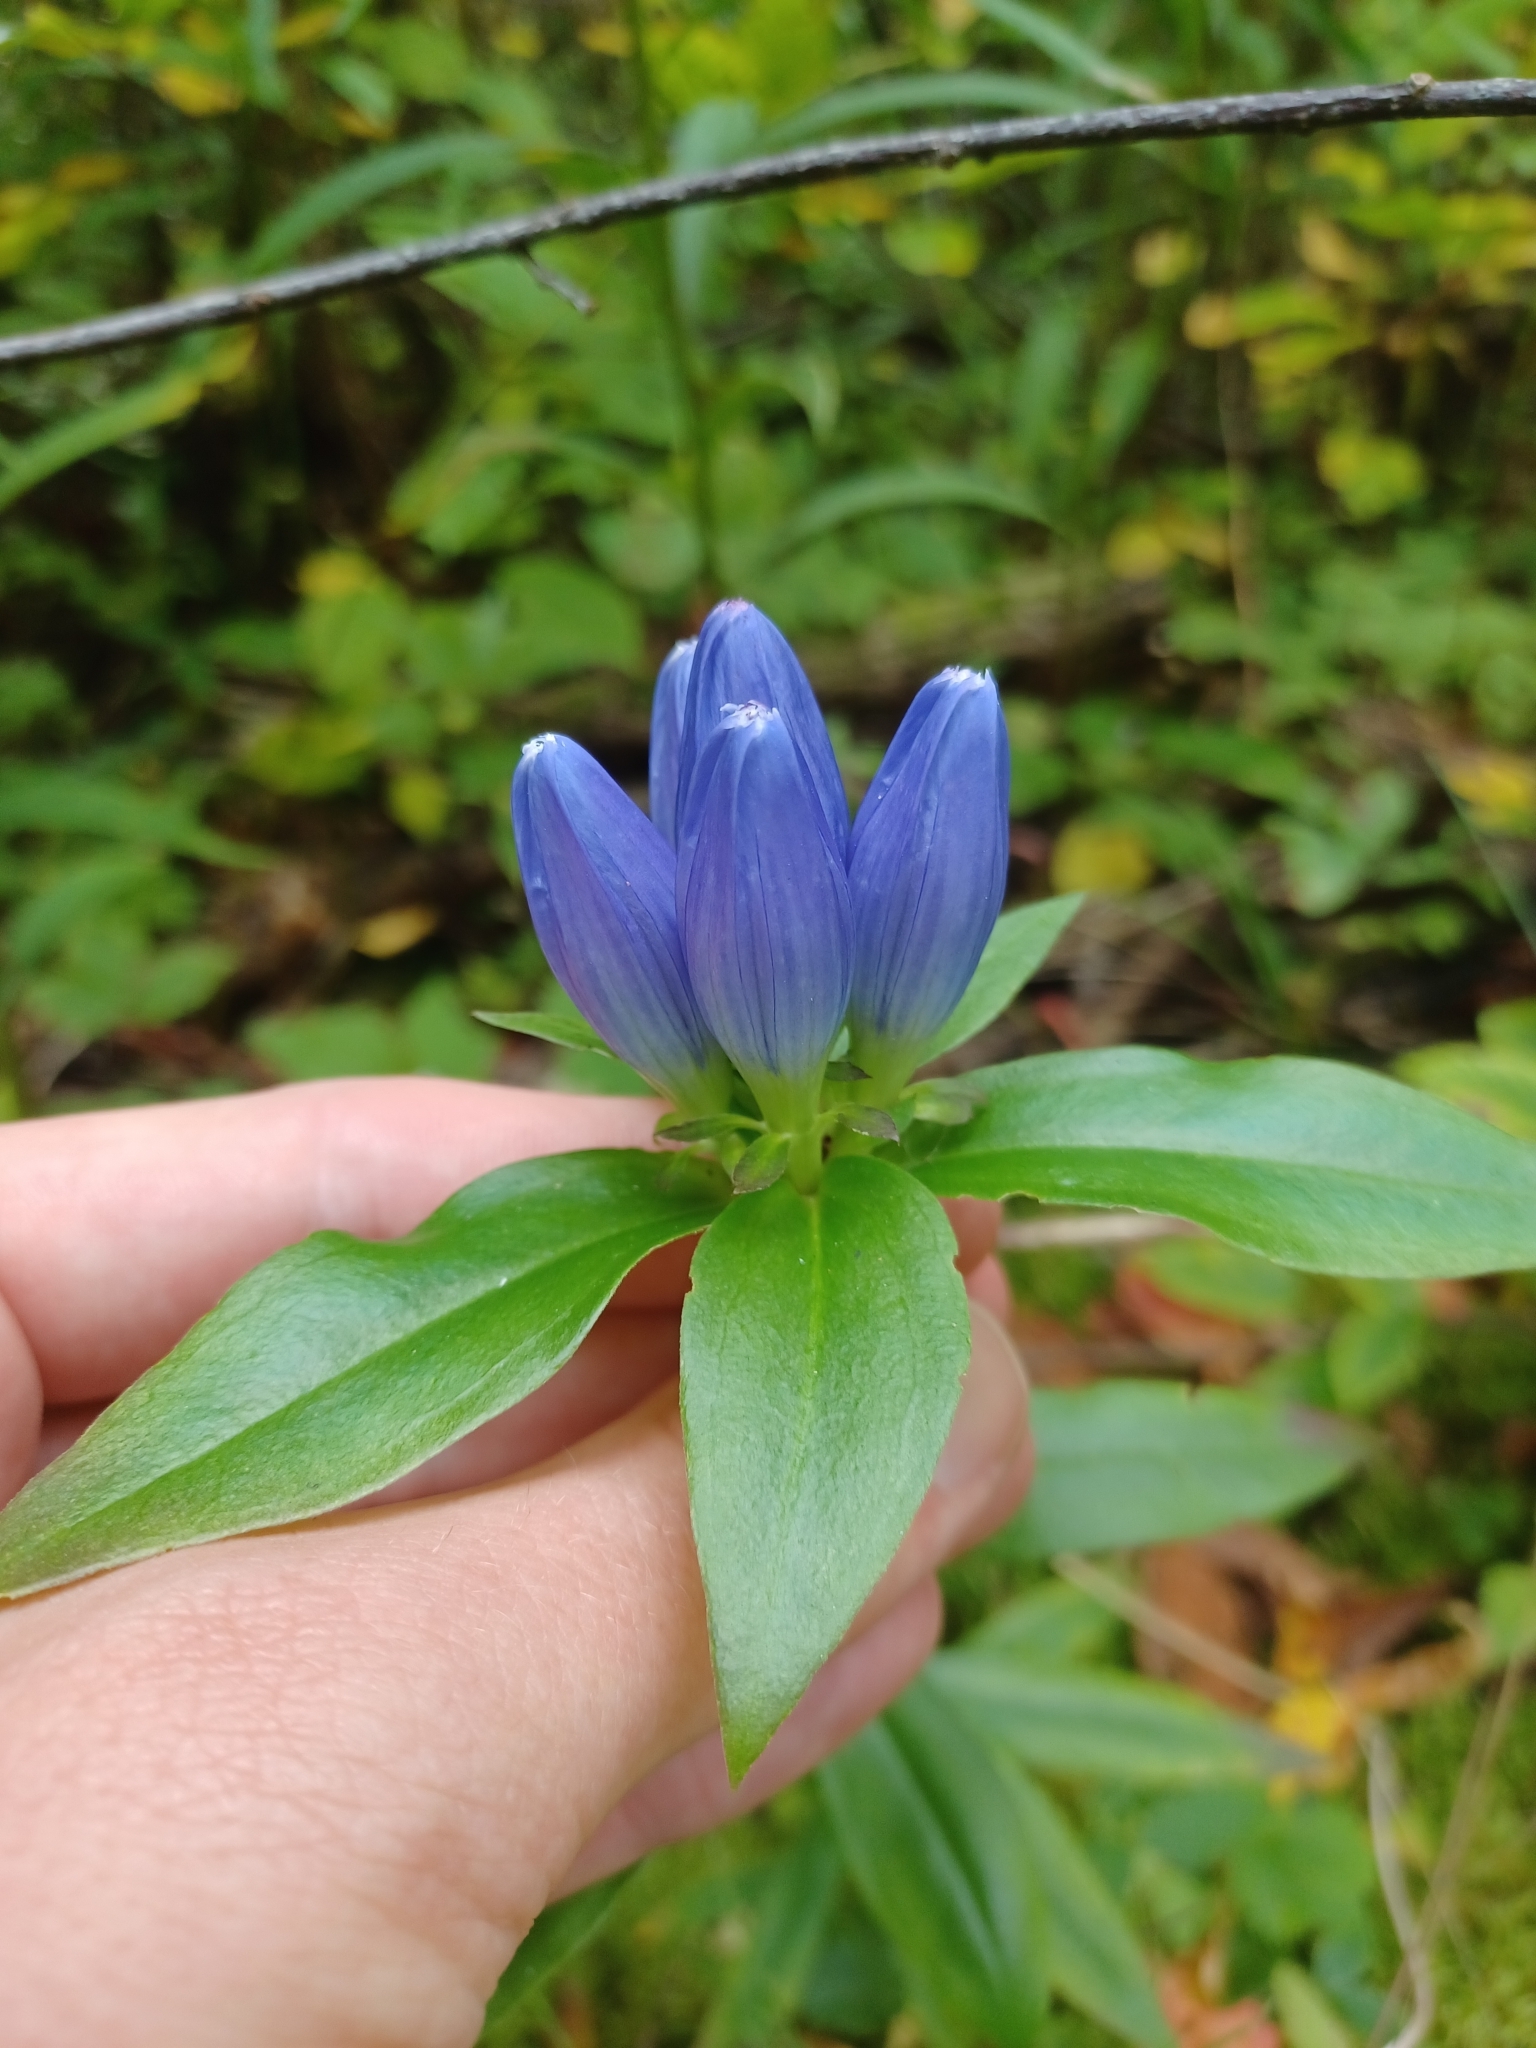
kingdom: Plantae
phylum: Tracheophyta
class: Magnoliopsida
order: Gentianales
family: Gentianaceae
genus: Gentiana
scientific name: Gentiana andrewsii
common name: Bottle gentian
